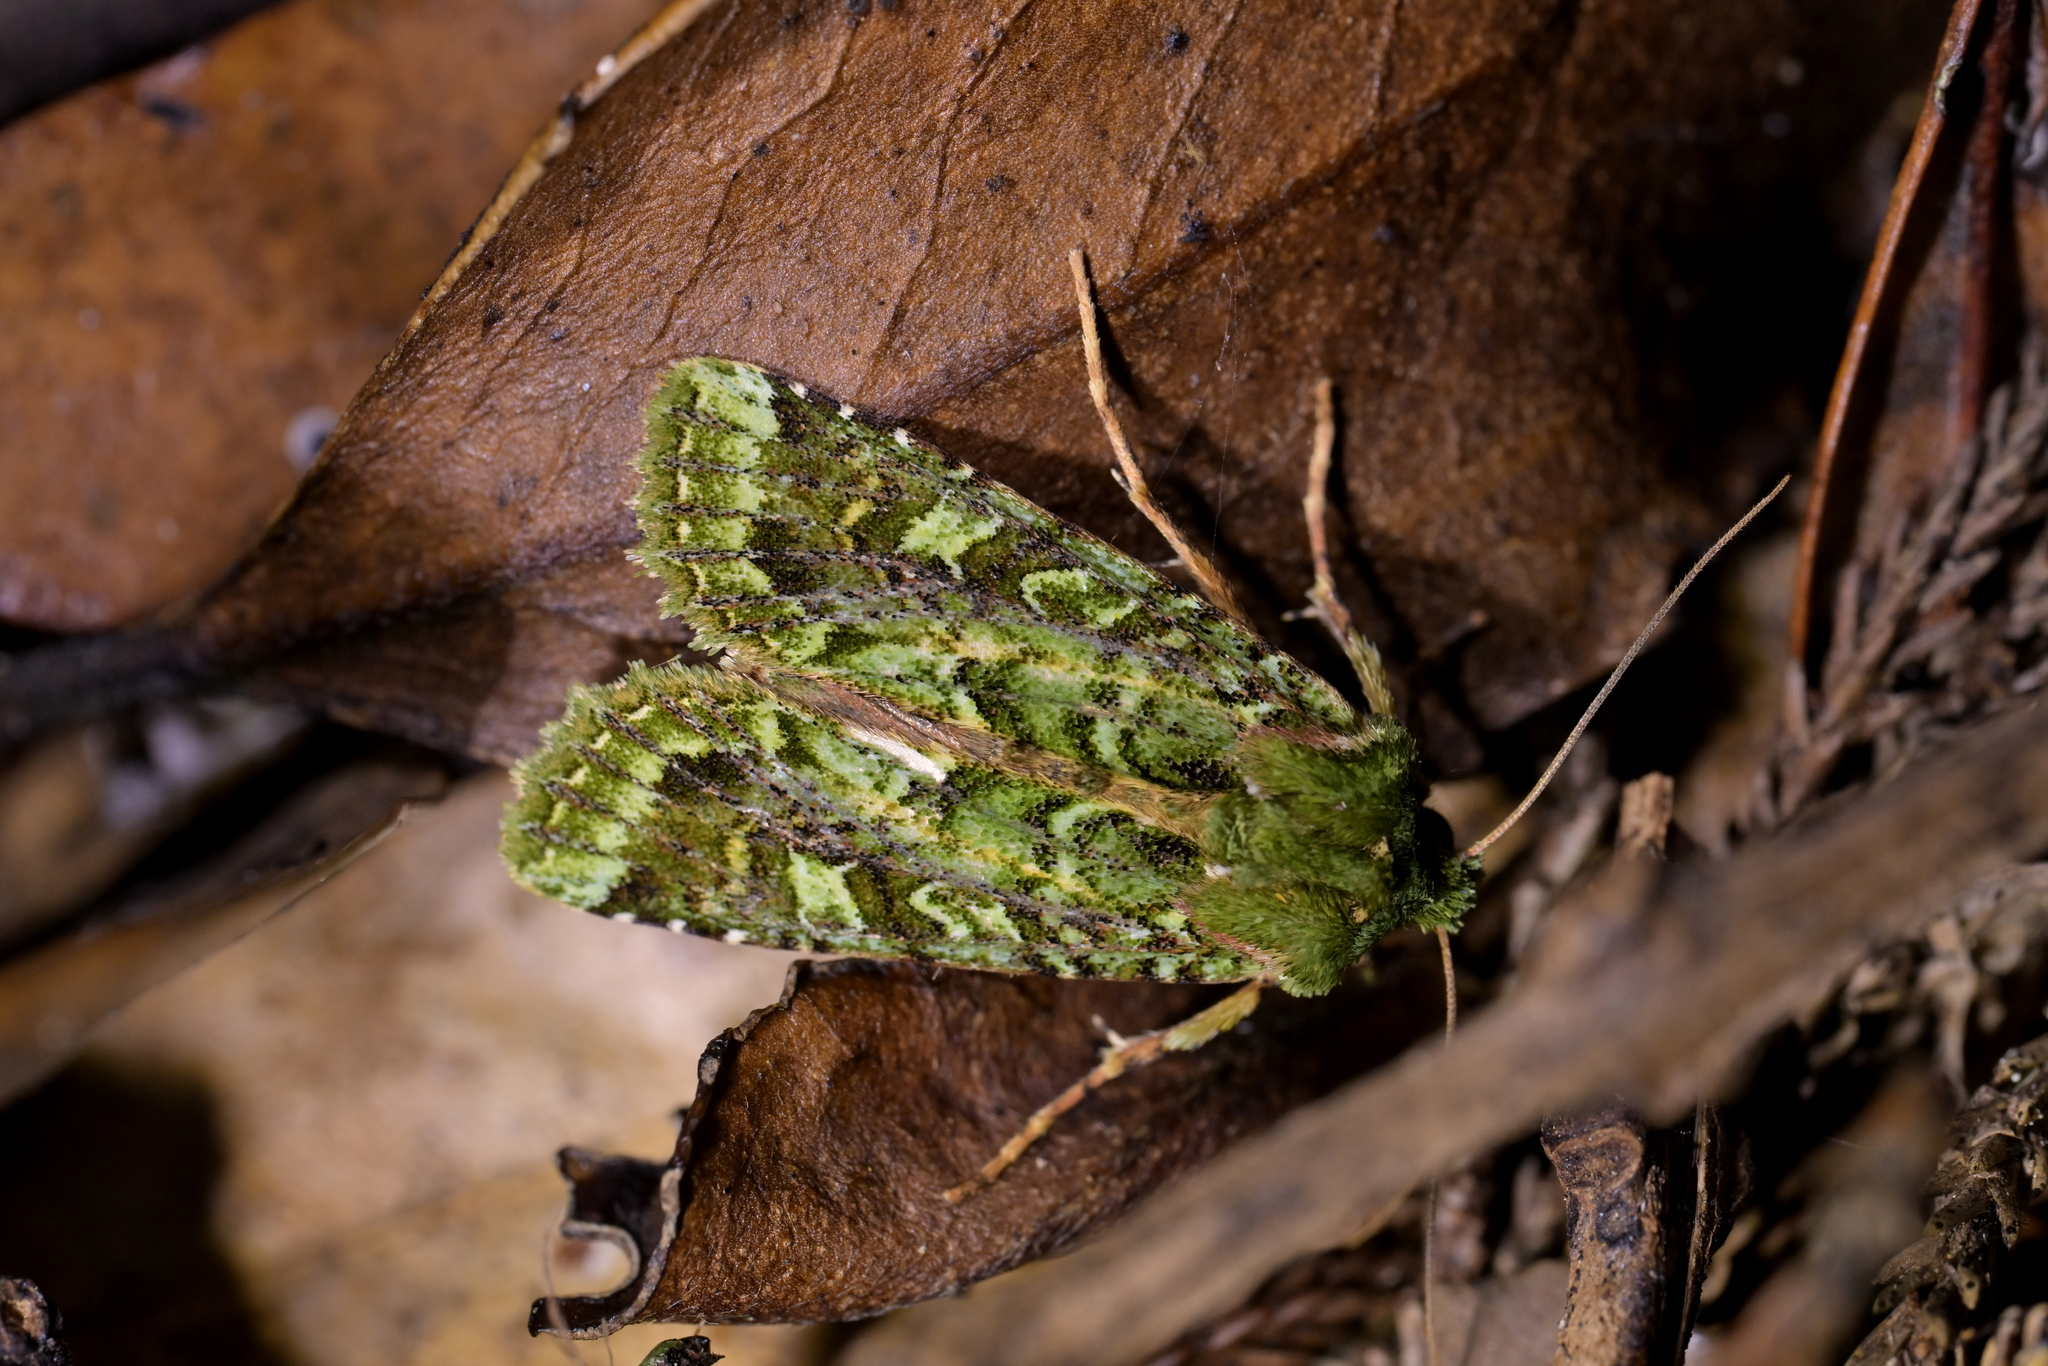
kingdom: Animalia
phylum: Arthropoda
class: Insecta
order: Lepidoptera
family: Noctuidae
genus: Feredayia
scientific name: Feredayia grammosa
